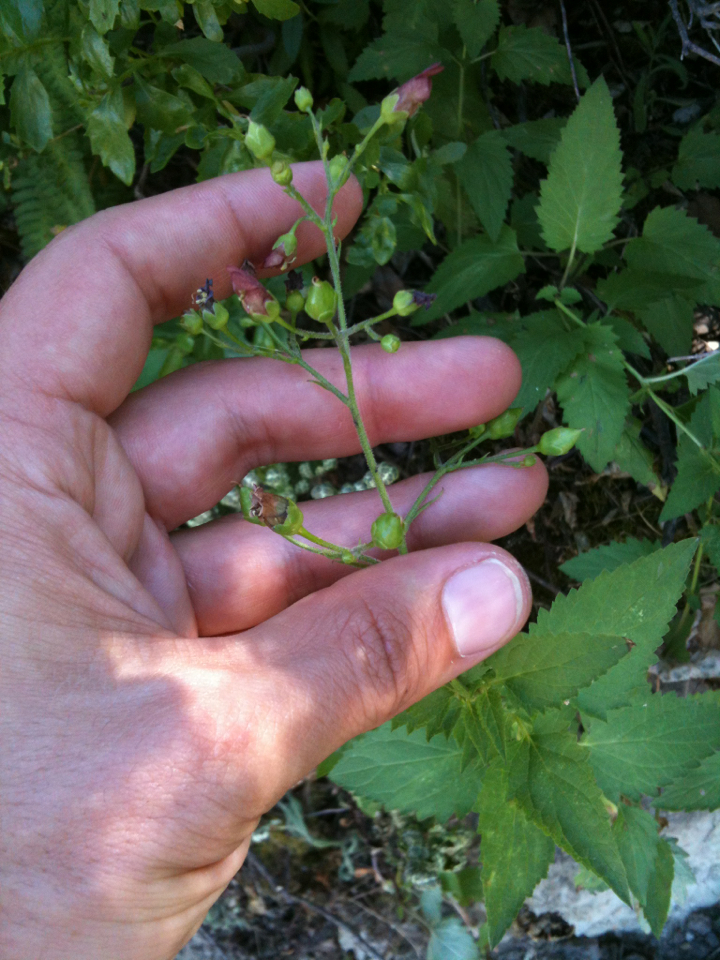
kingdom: Plantae
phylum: Tracheophyta
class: Magnoliopsida
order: Lamiales
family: Scrophulariaceae
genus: Scrophularia
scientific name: Scrophularia californica
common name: California figwort
